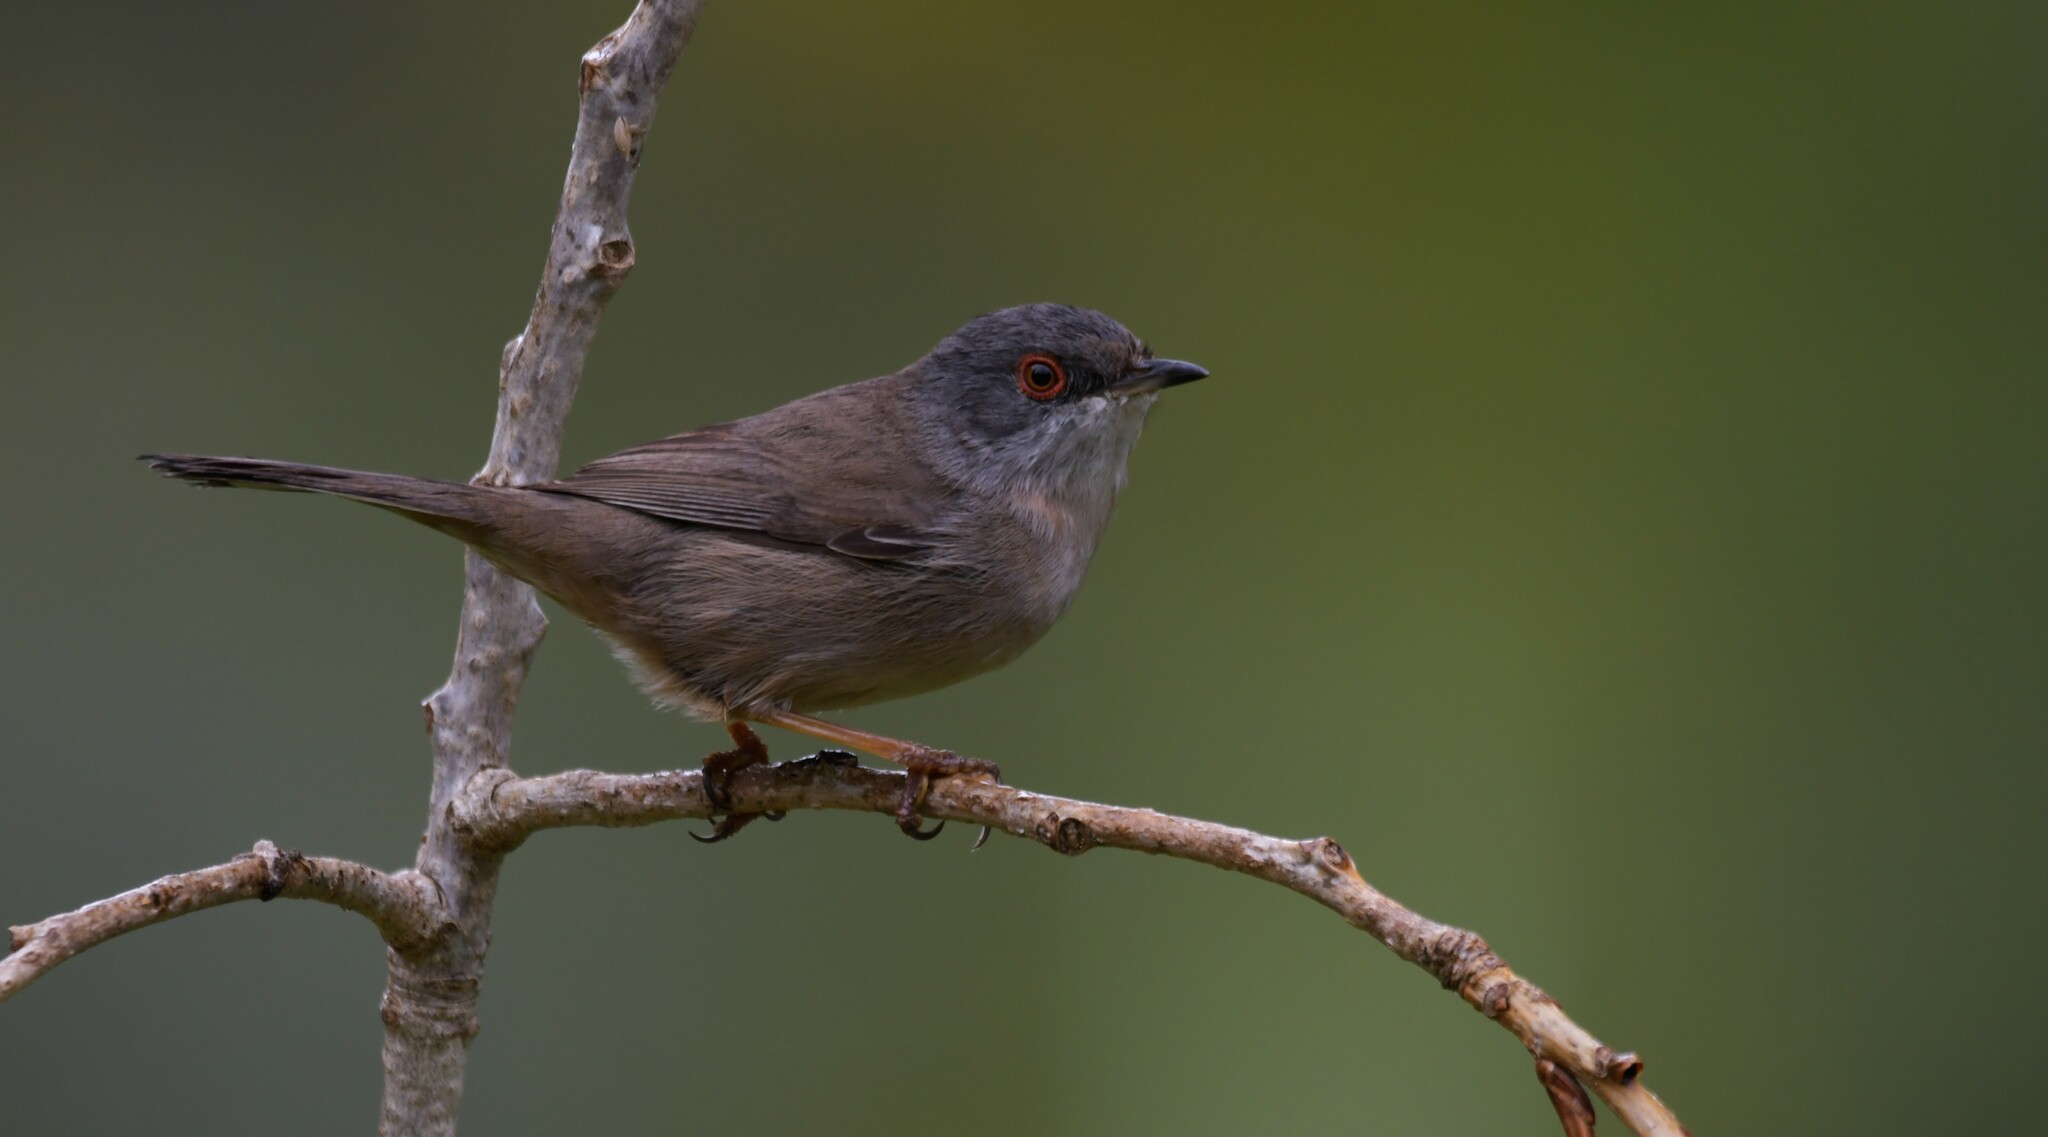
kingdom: Animalia
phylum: Chordata
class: Aves
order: Passeriformes
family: Sylviidae
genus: Curruca
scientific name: Curruca melanocephala
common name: Sardinian warbler
